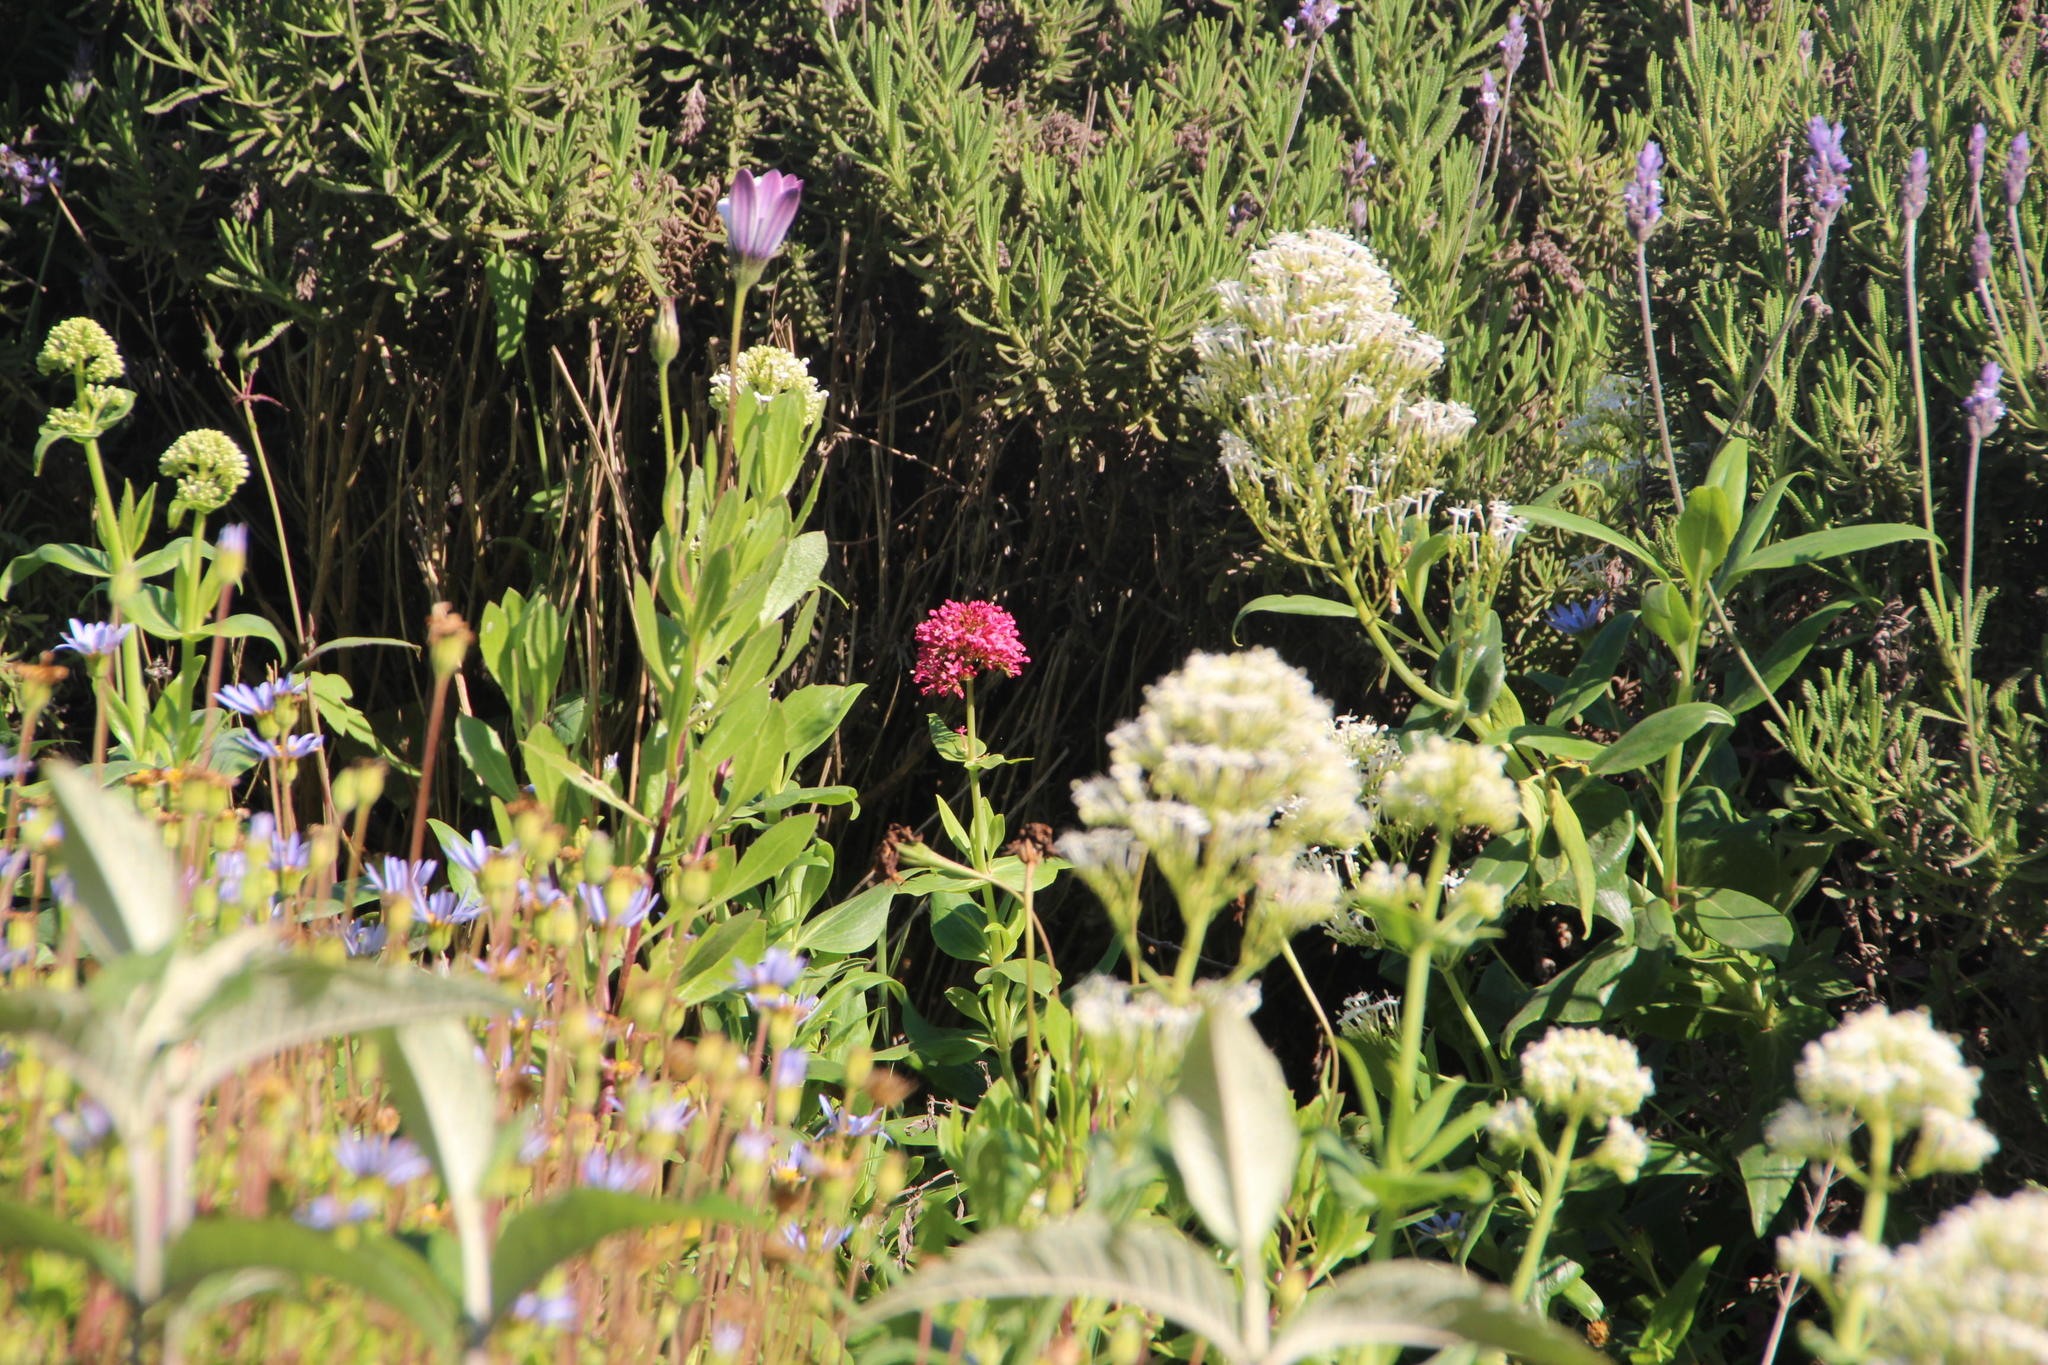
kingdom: Plantae
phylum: Tracheophyta
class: Magnoliopsida
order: Dipsacales
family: Caprifoliaceae
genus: Centranthus
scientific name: Centranthus ruber
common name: Red valerian
